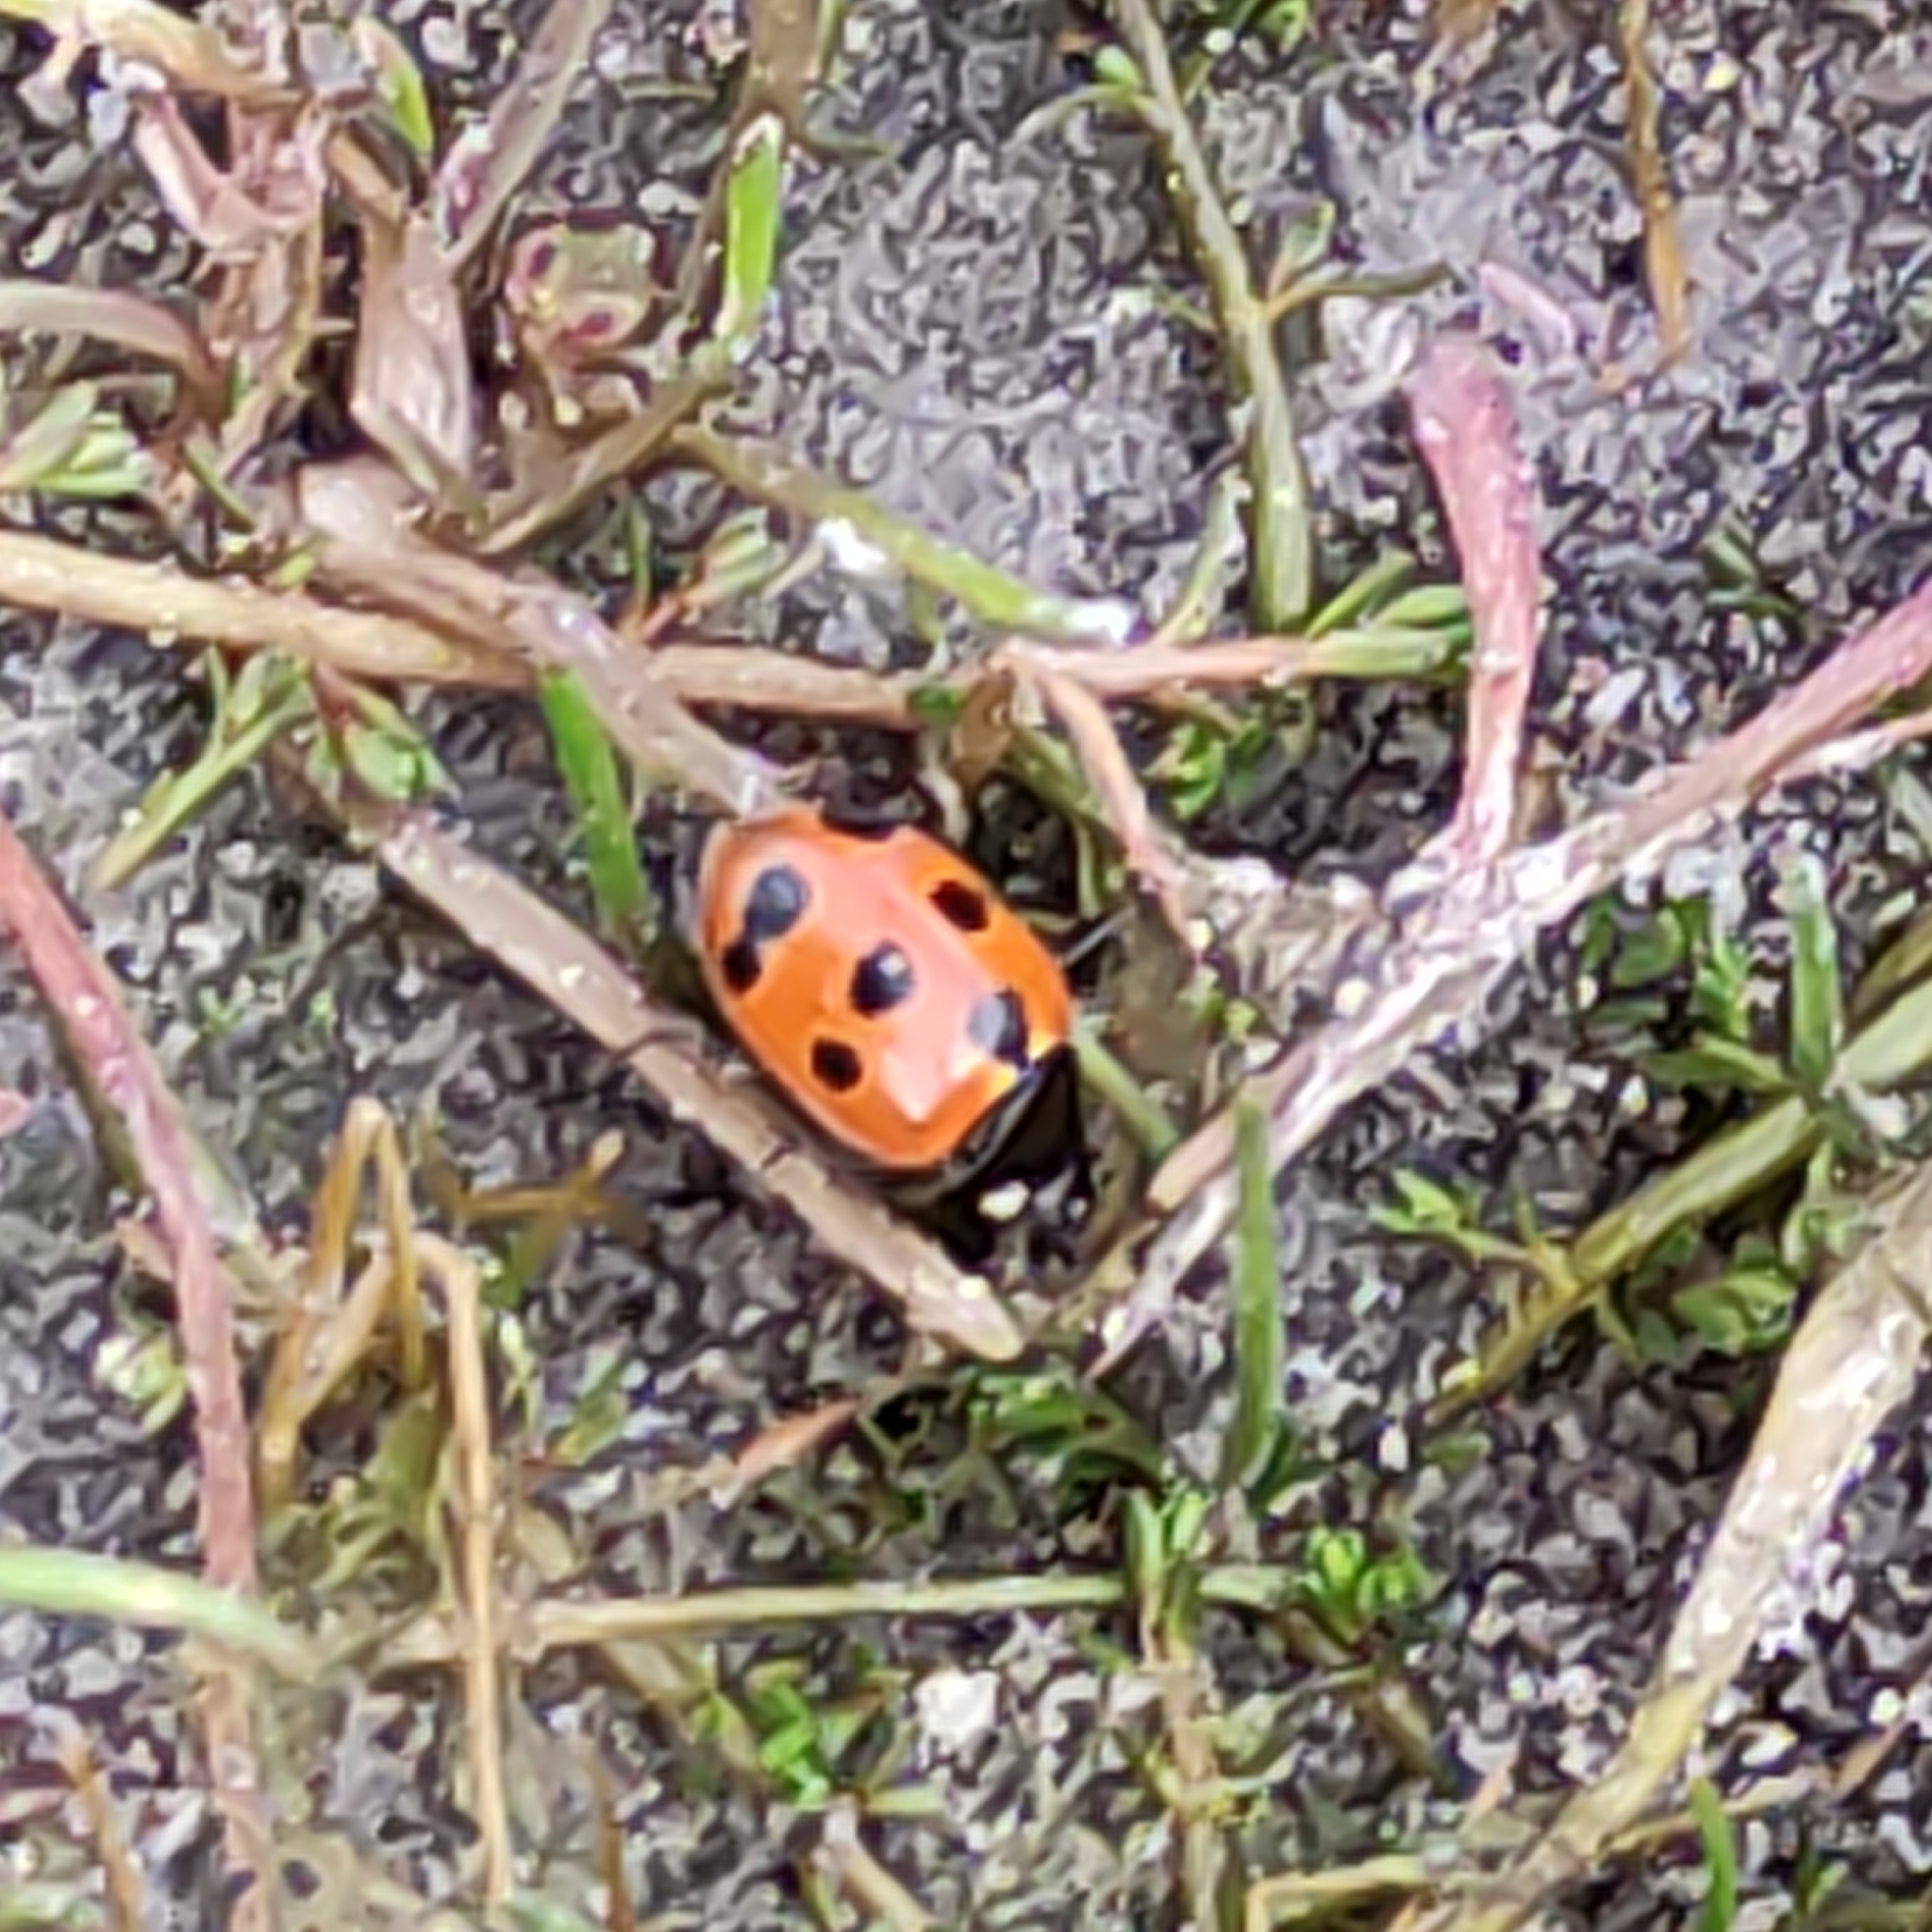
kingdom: Animalia
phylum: Arthropoda
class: Insecta
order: Coleoptera
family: Coccinellidae
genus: Coccinella
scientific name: Coccinella undecimpunctata
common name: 11-spot ladybird
